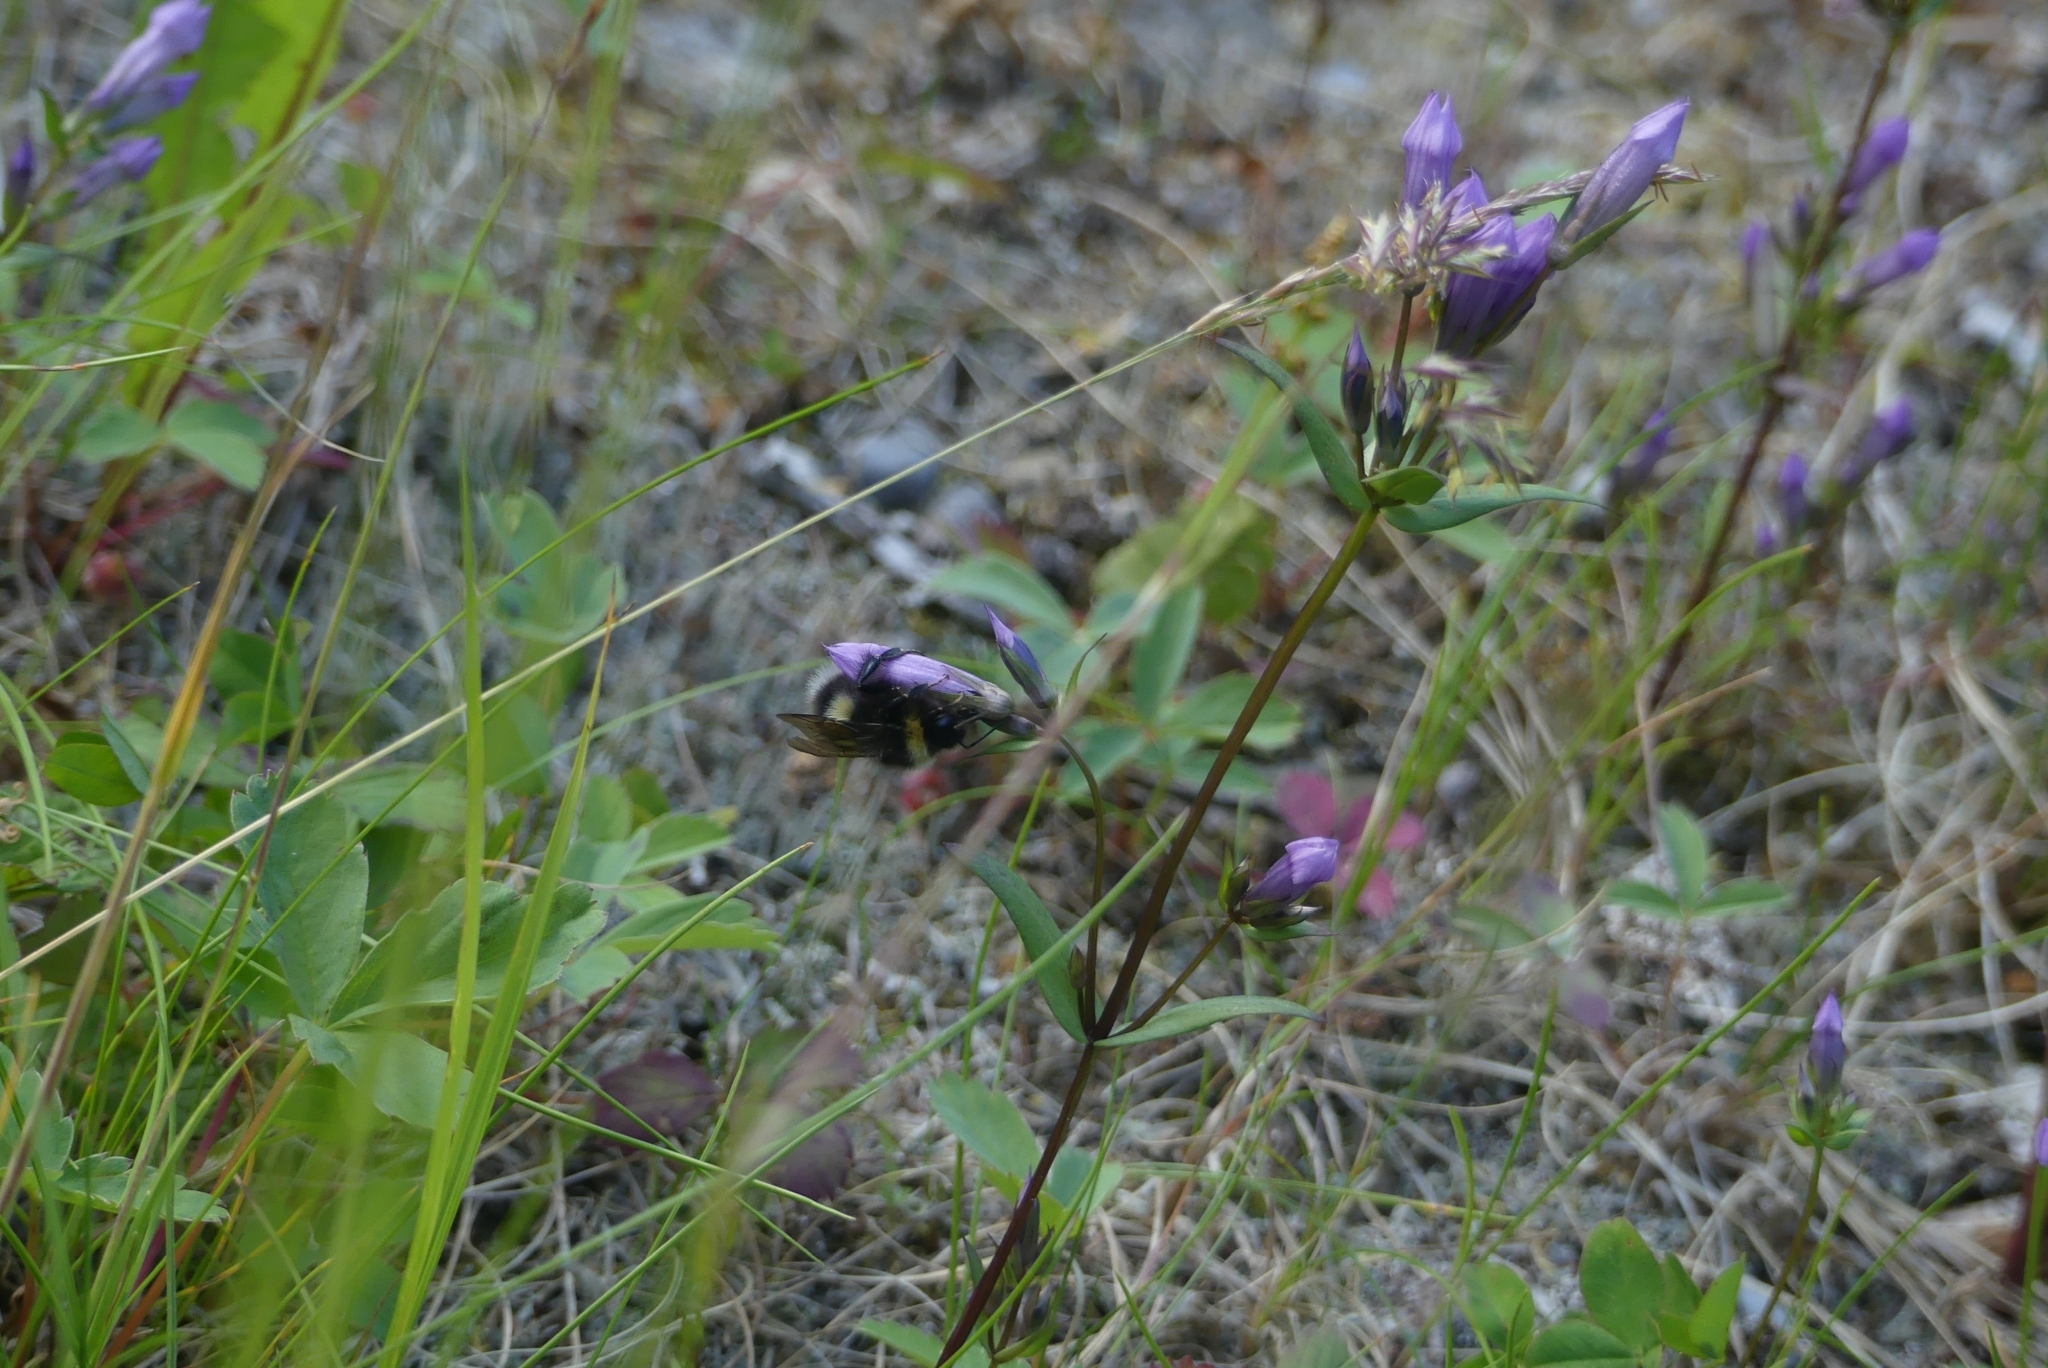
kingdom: Animalia
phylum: Arthropoda
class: Insecta
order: Hymenoptera
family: Apidae
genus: Bombus
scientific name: Bombus cryptarum
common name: Cryptic bumblebee
